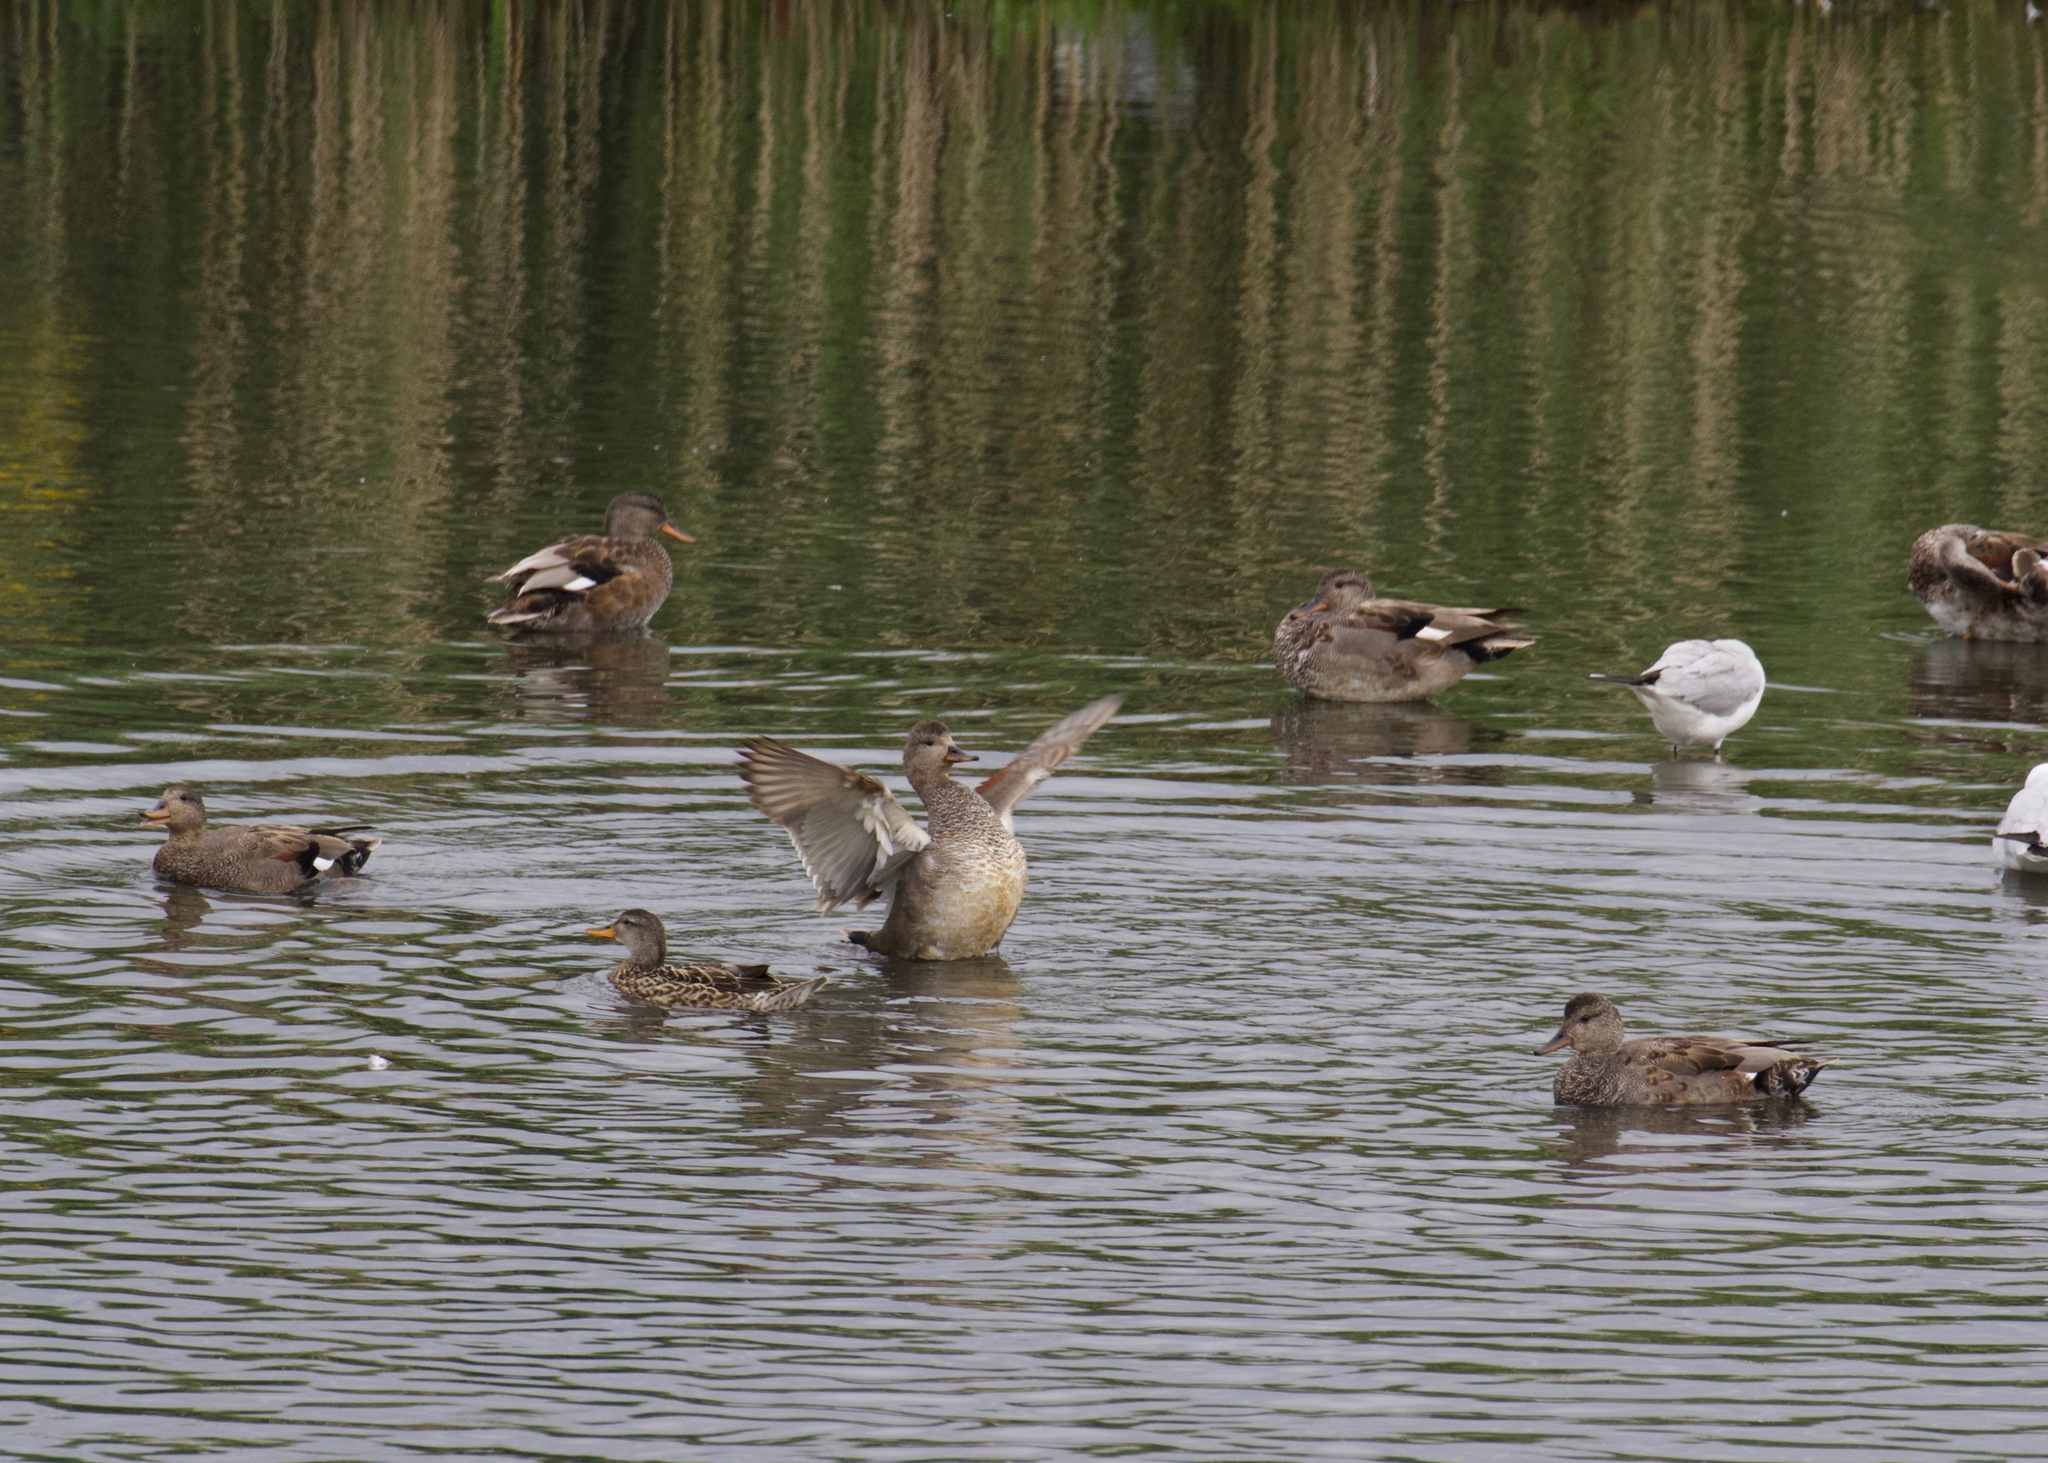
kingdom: Animalia
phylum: Chordata
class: Aves
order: Anseriformes
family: Anatidae
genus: Mareca
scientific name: Mareca strepera
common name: Gadwall
